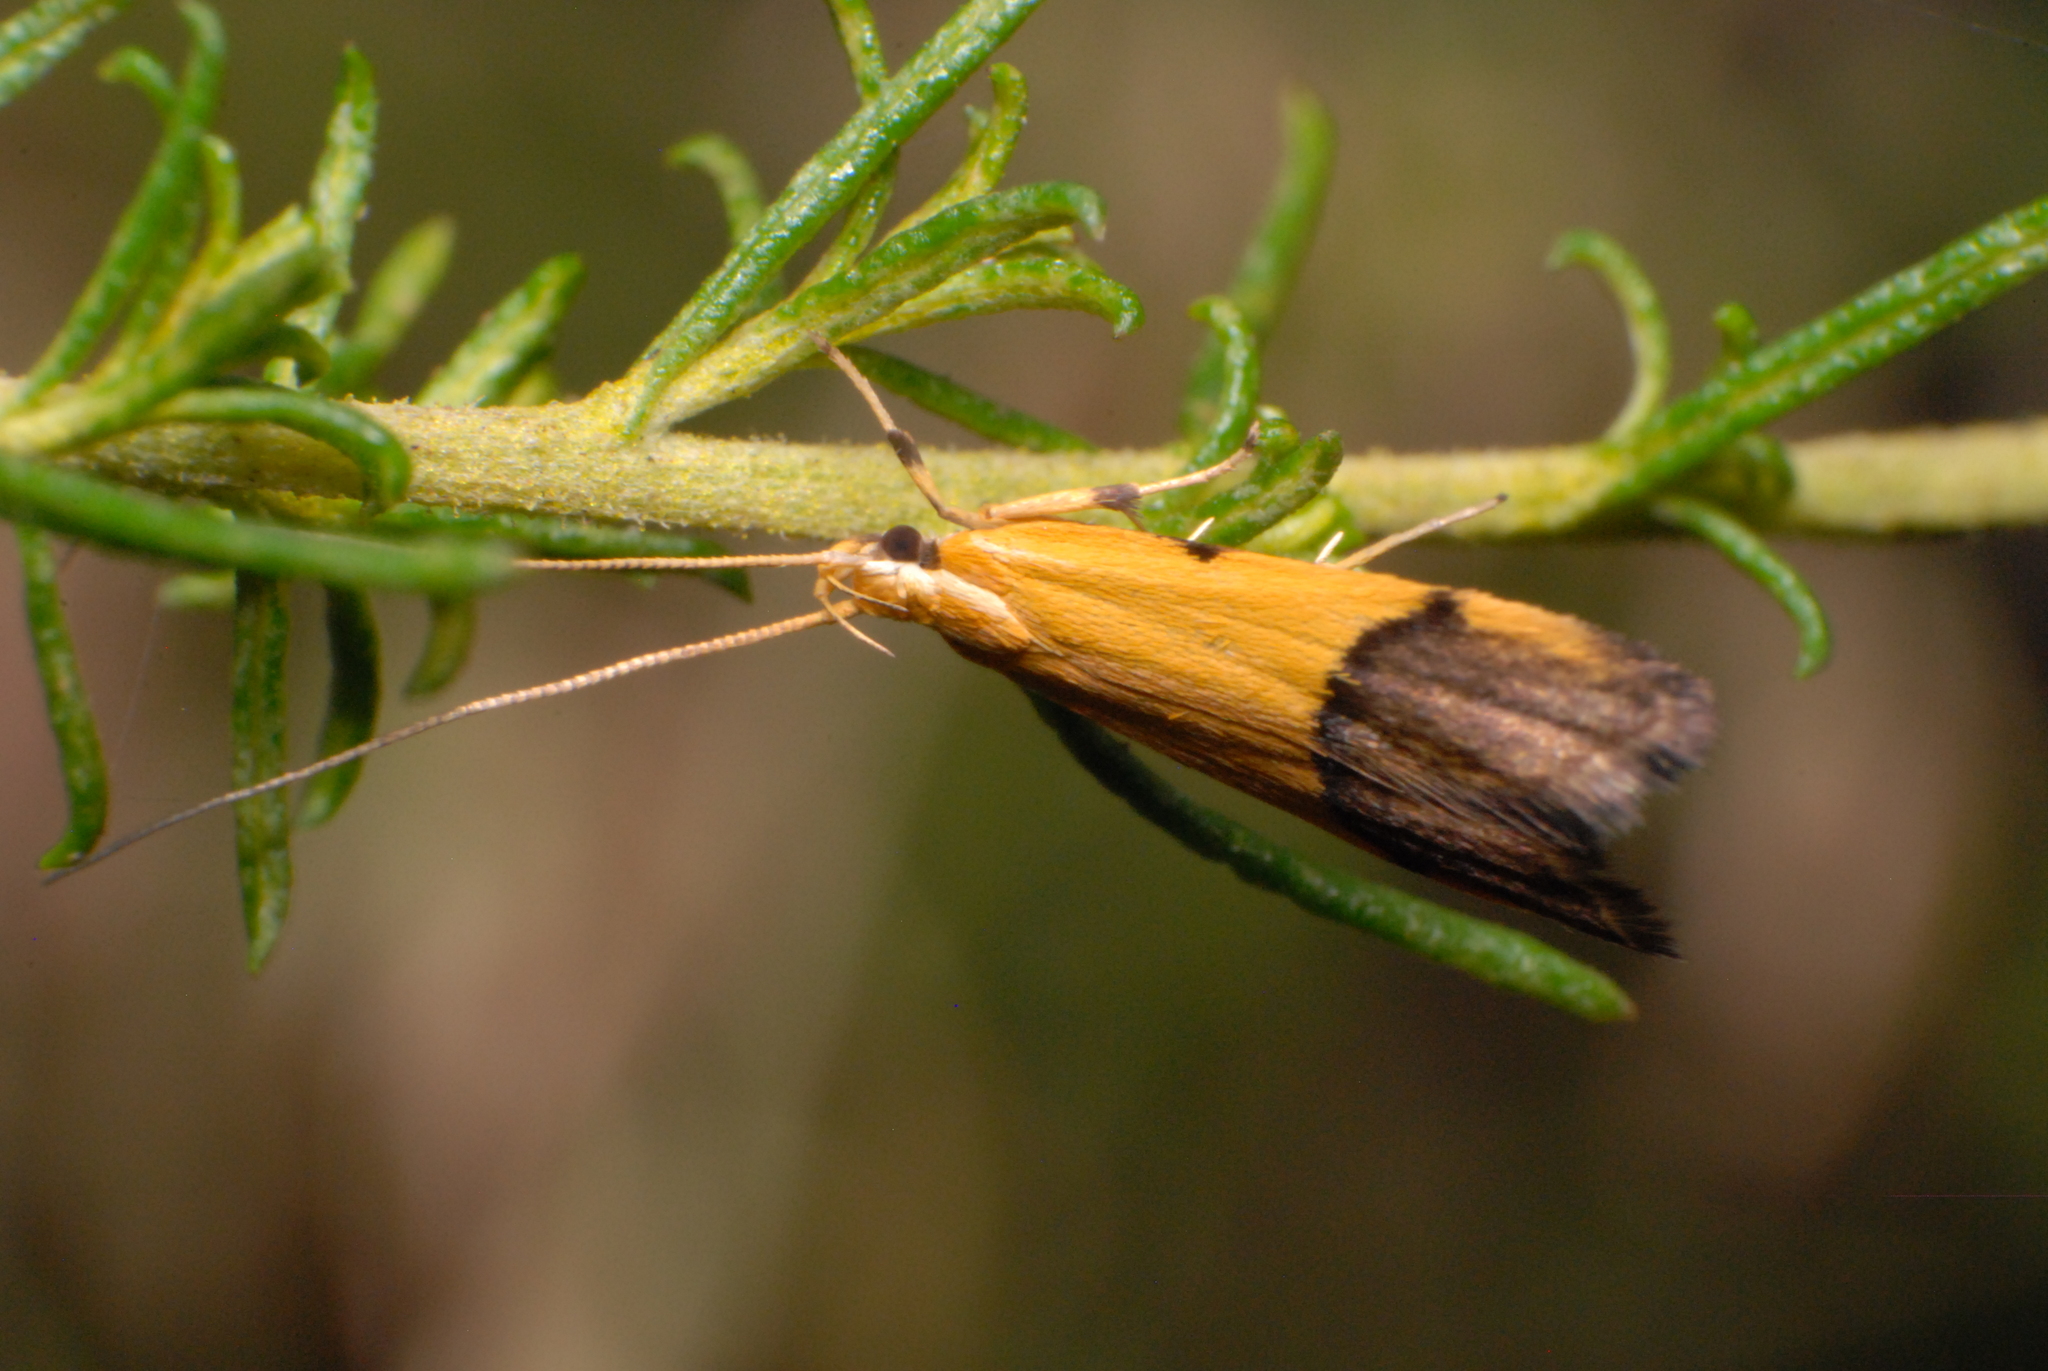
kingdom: Animalia
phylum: Arthropoda
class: Insecta
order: Lepidoptera
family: Lecithoceridae
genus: Crocanthes
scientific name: Crocanthes micradelpha
